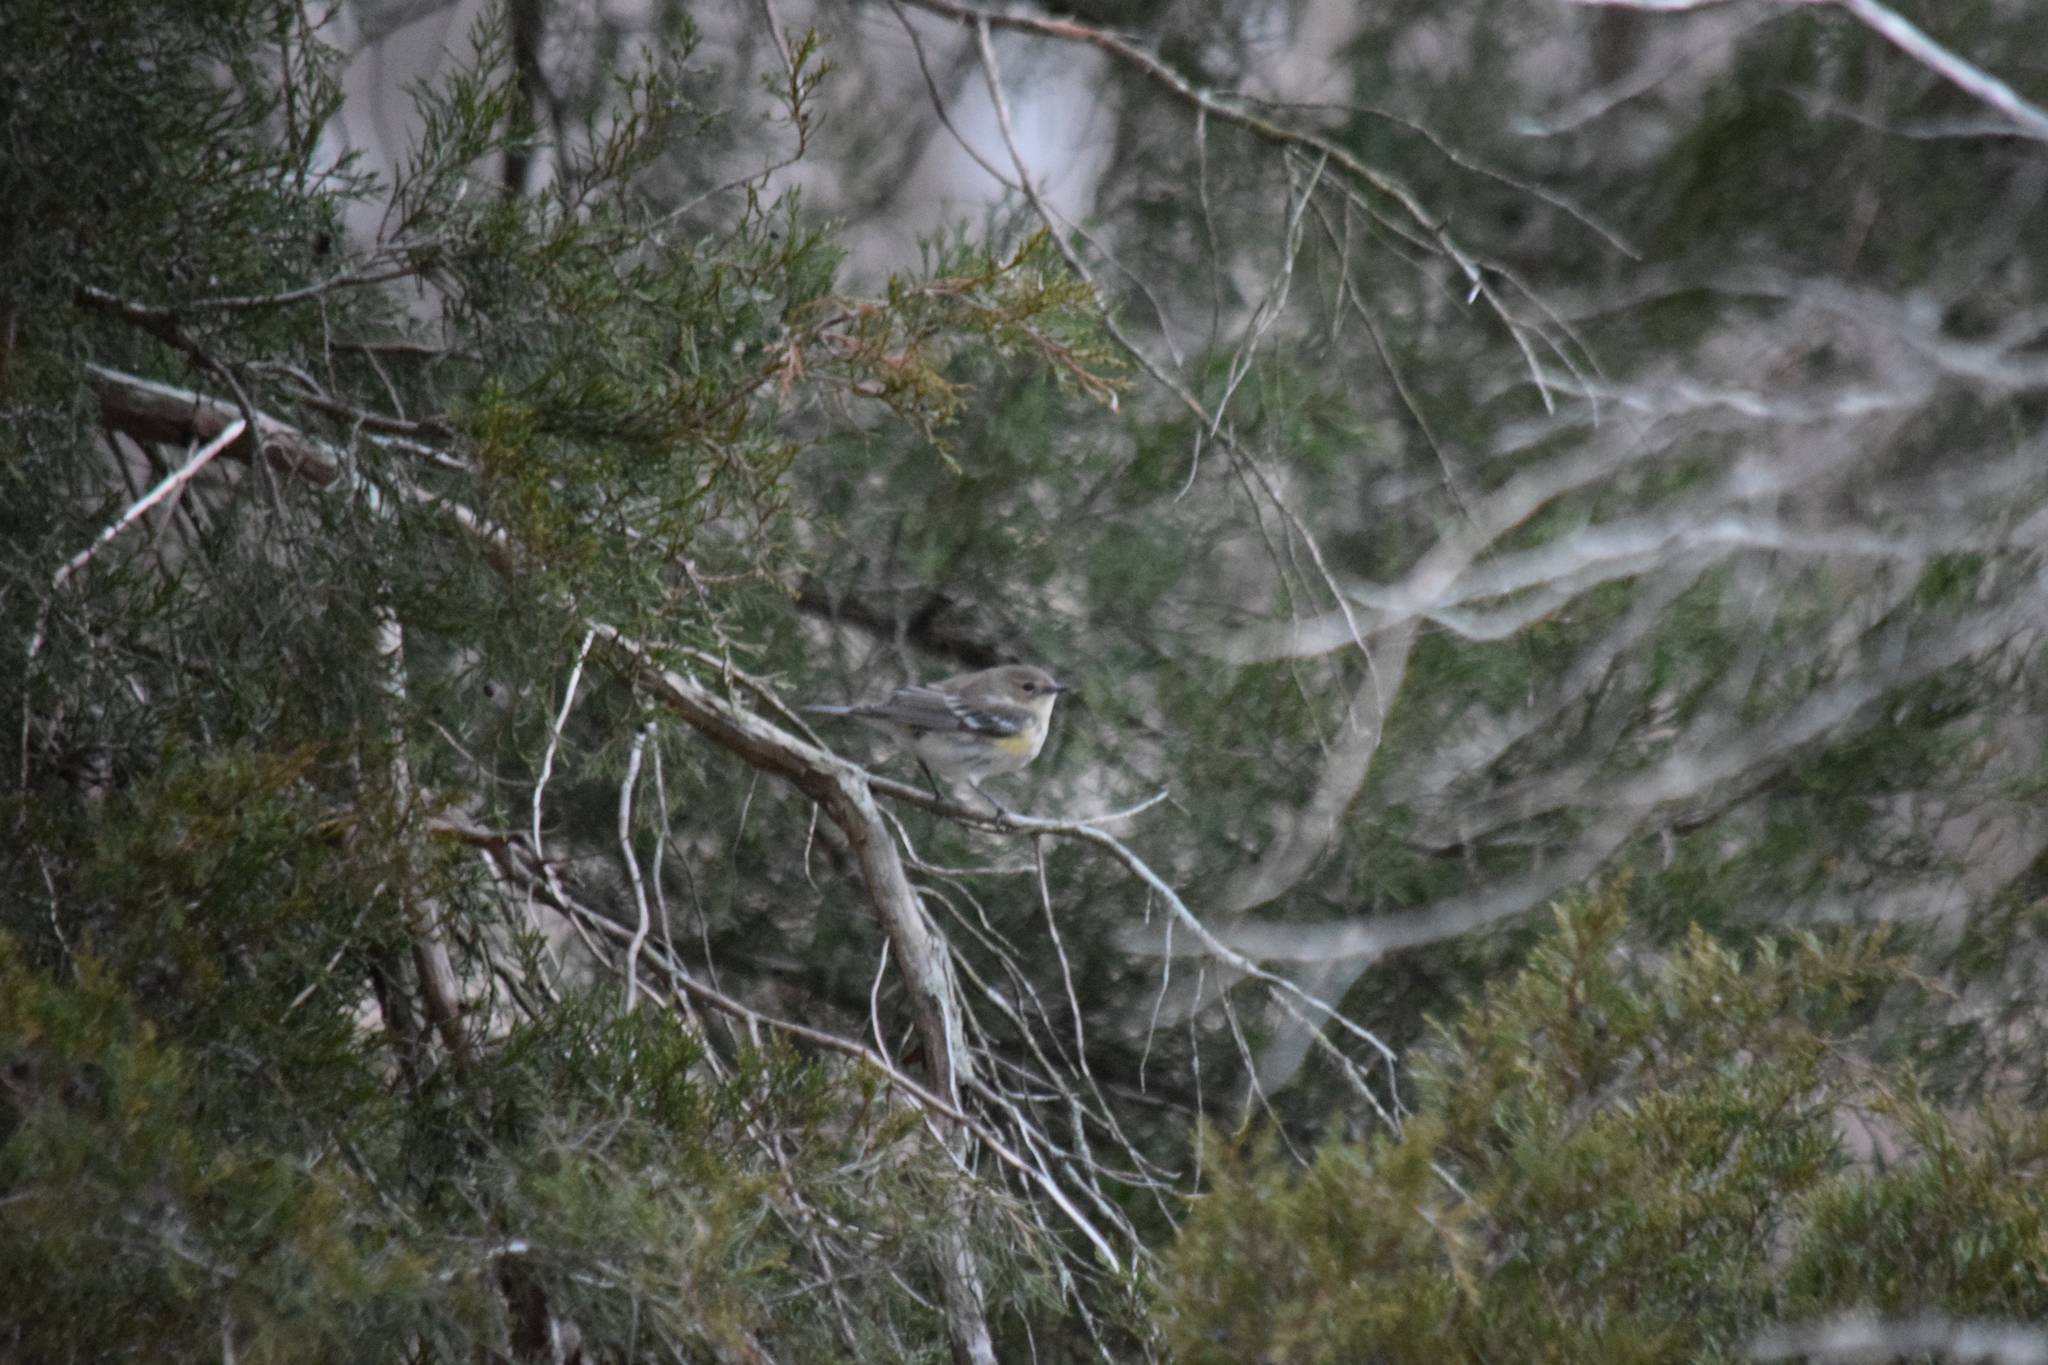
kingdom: Animalia
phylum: Chordata
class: Aves
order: Passeriformes
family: Parulidae
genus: Setophaga
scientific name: Setophaga coronata
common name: Myrtle warbler
